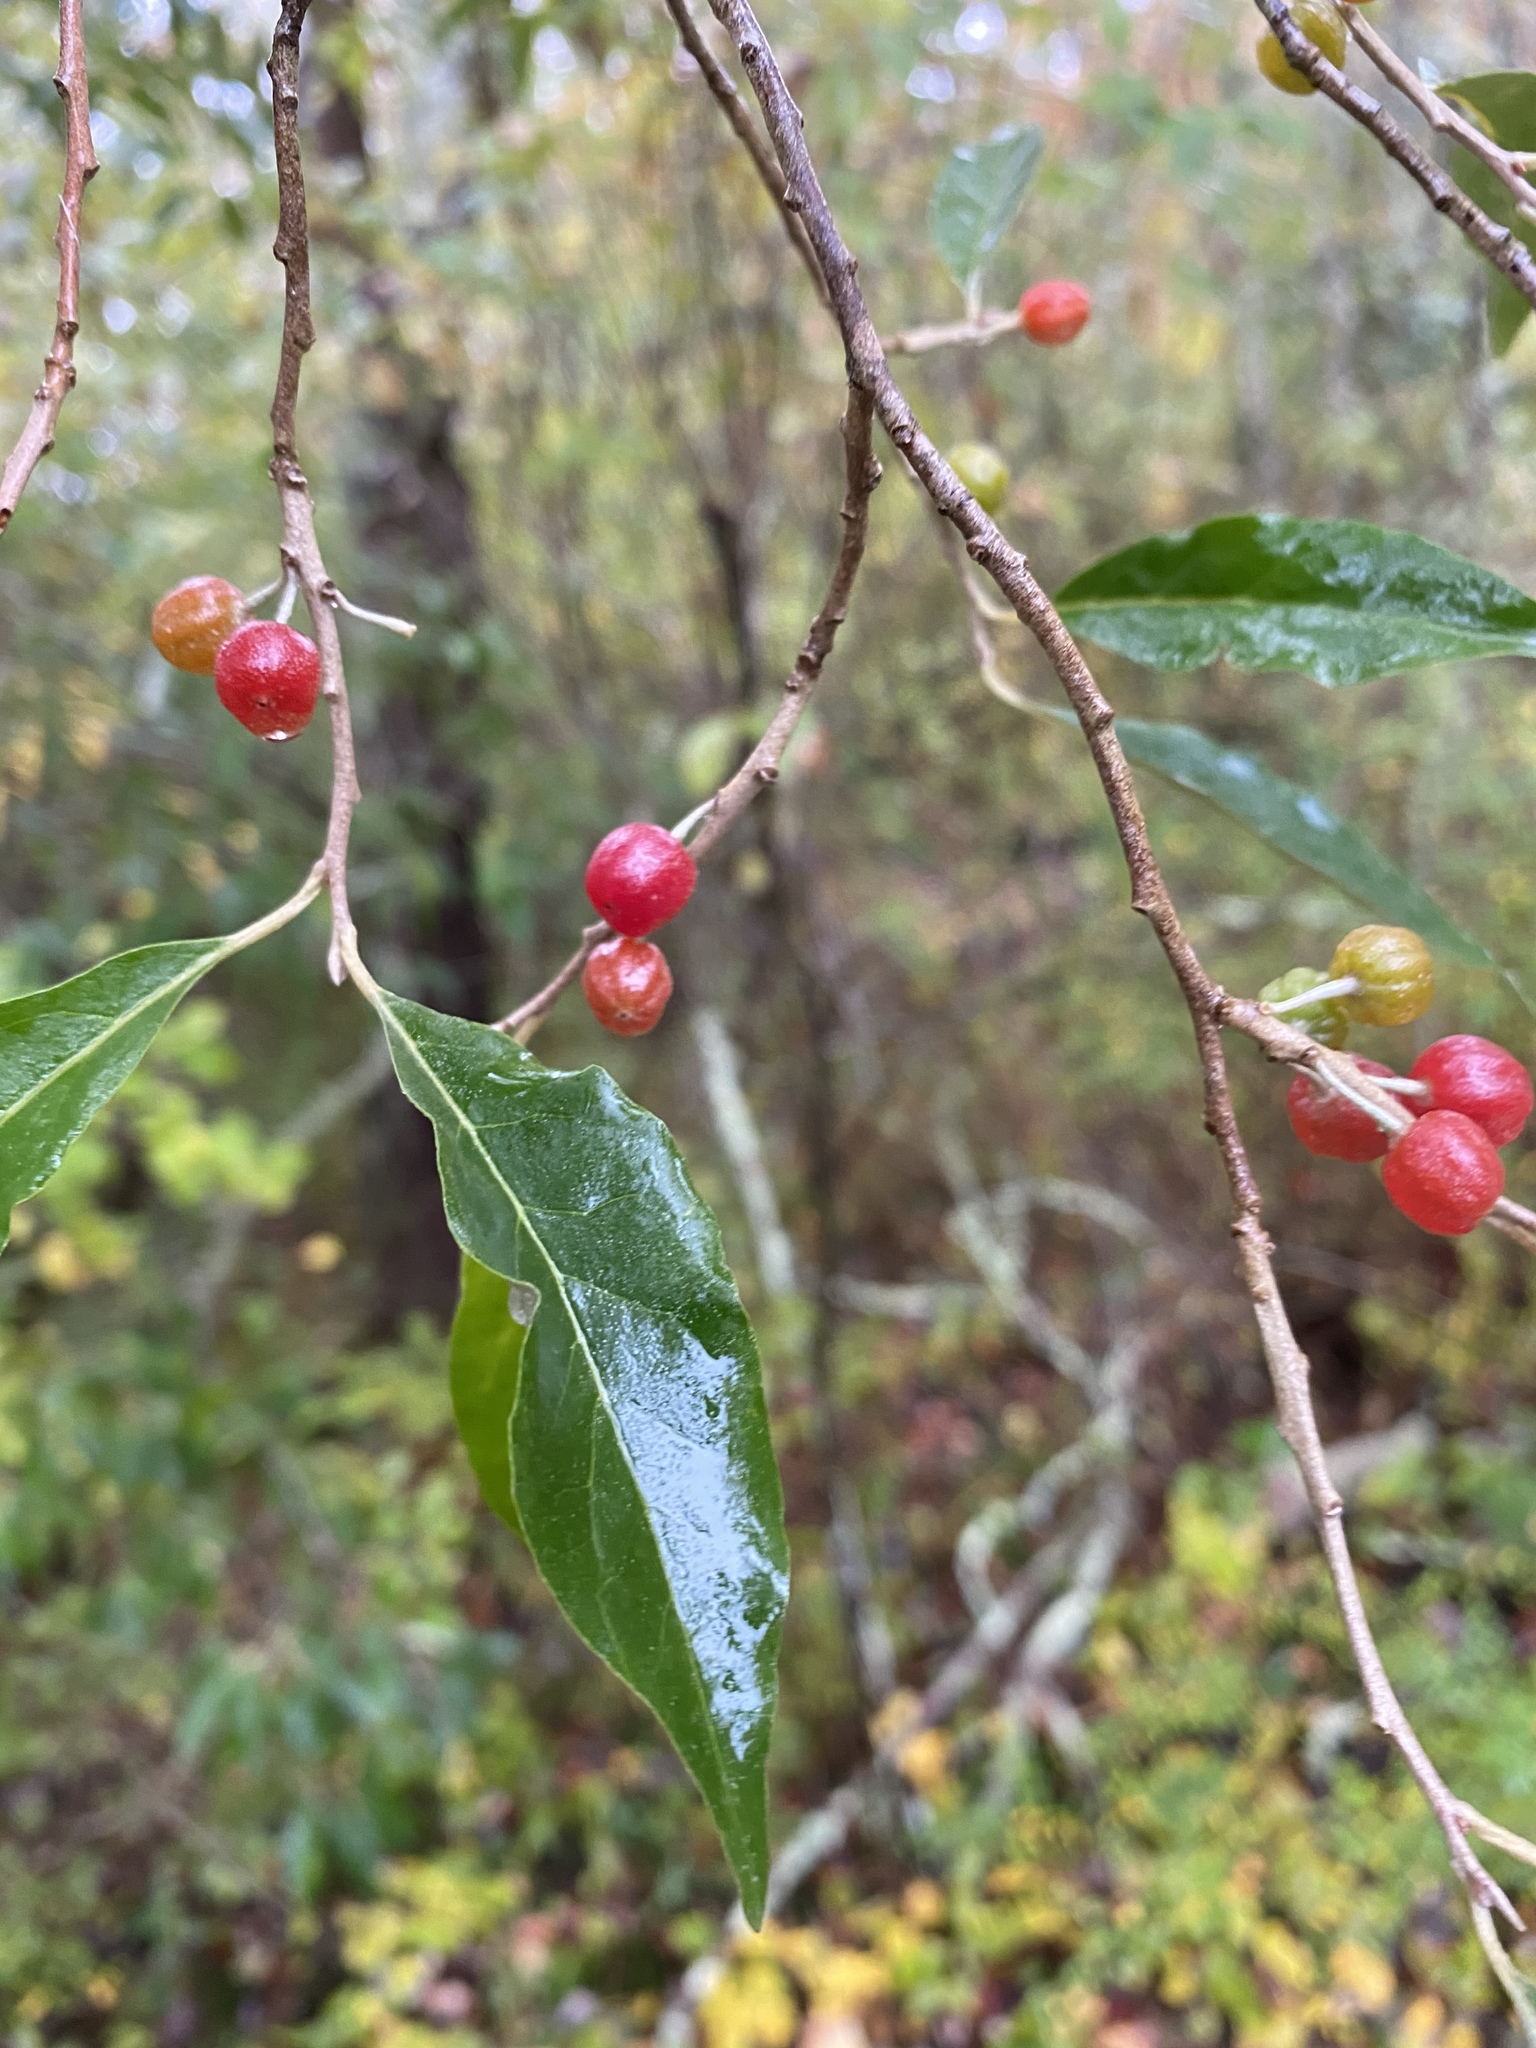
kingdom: Plantae
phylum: Tracheophyta
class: Magnoliopsida
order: Rosales
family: Elaeagnaceae
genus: Elaeagnus
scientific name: Elaeagnus umbellata
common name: Autumn olive
